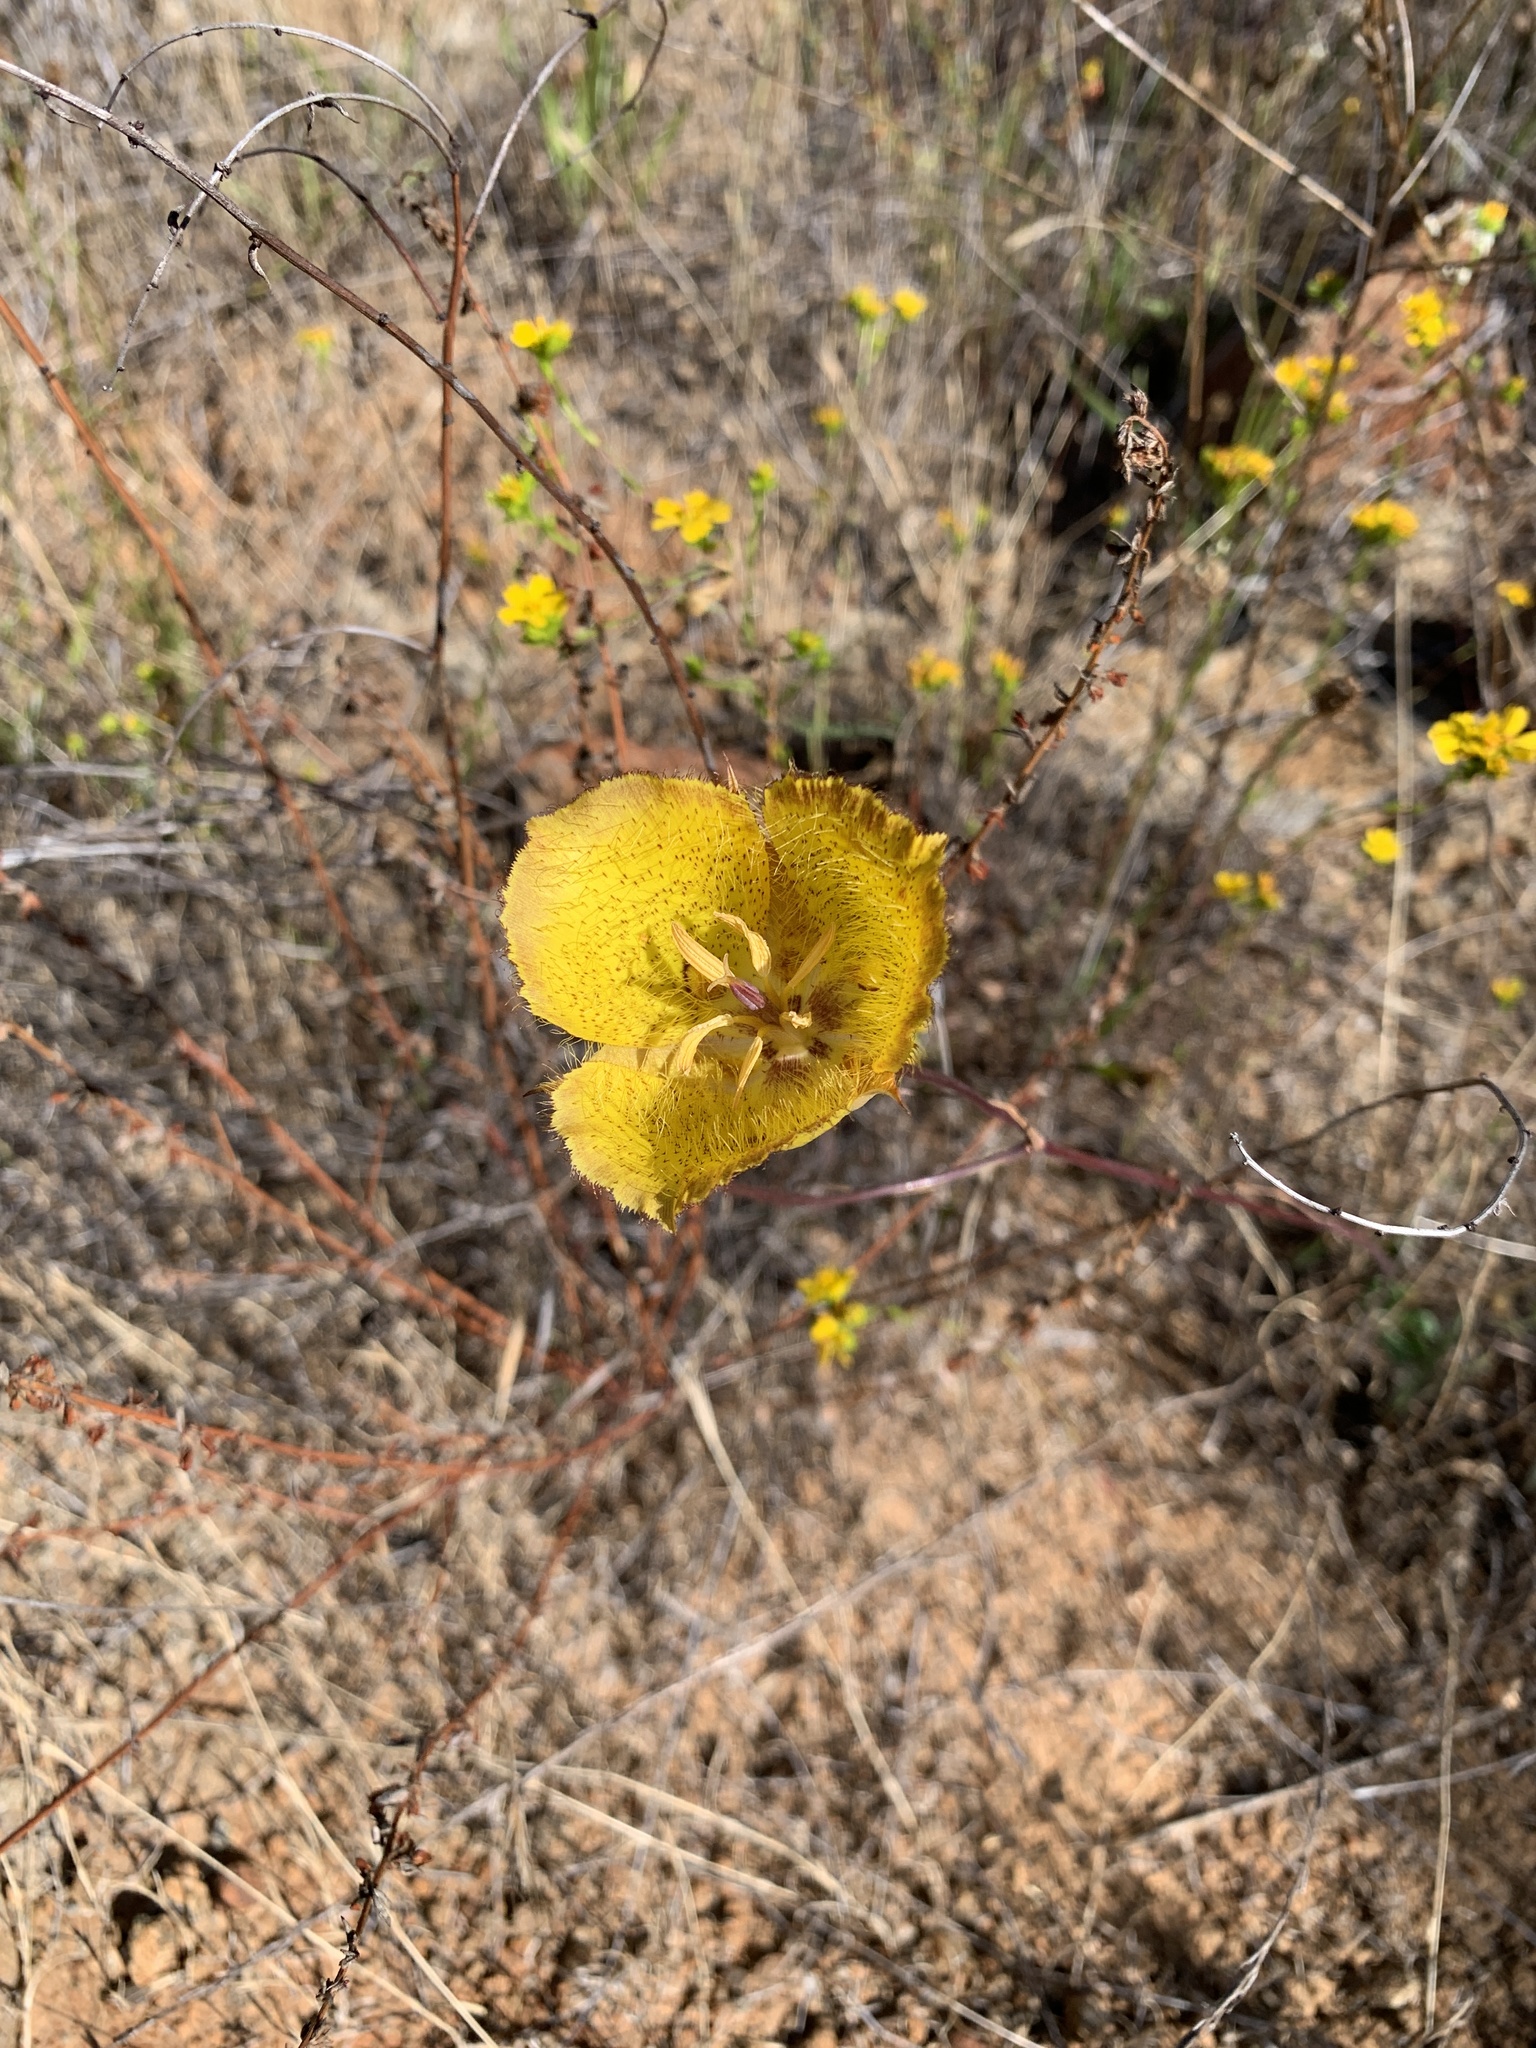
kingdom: Plantae
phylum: Tracheophyta
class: Liliopsida
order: Liliales
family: Liliaceae
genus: Calochortus
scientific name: Calochortus weedii
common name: Weed's mariposa-lily
